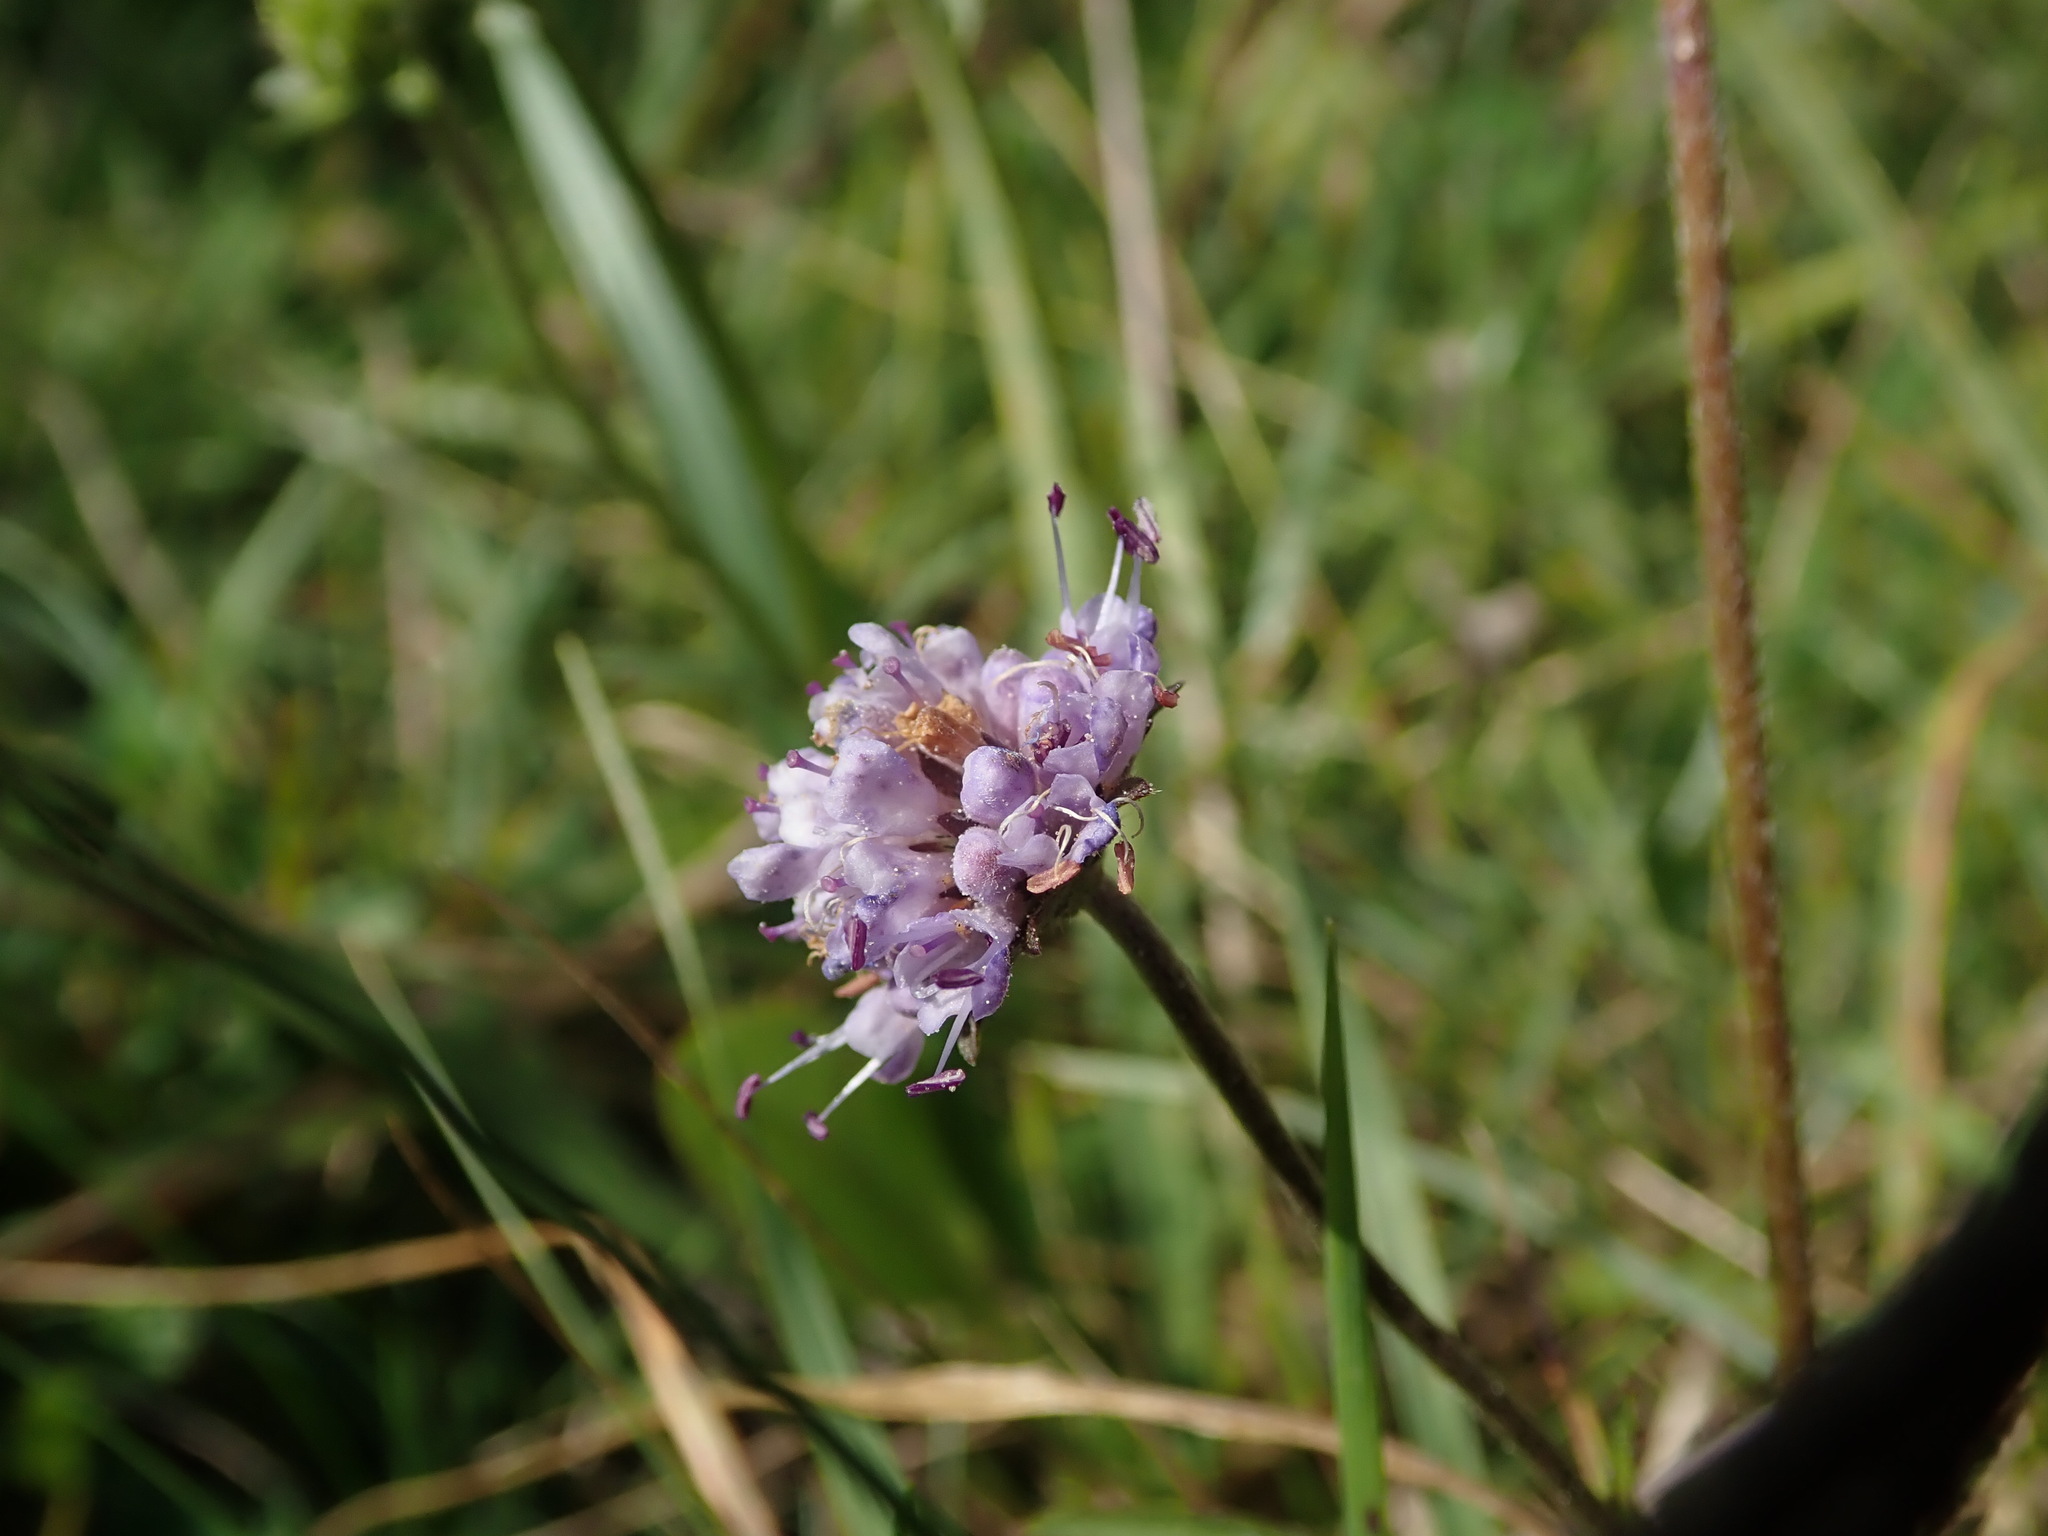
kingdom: Plantae
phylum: Tracheophyta
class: Magnoliopsida
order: Dipsacales
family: Caprifoliaceae
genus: Succisa
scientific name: Succisa pratensis
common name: Devil's-bit
